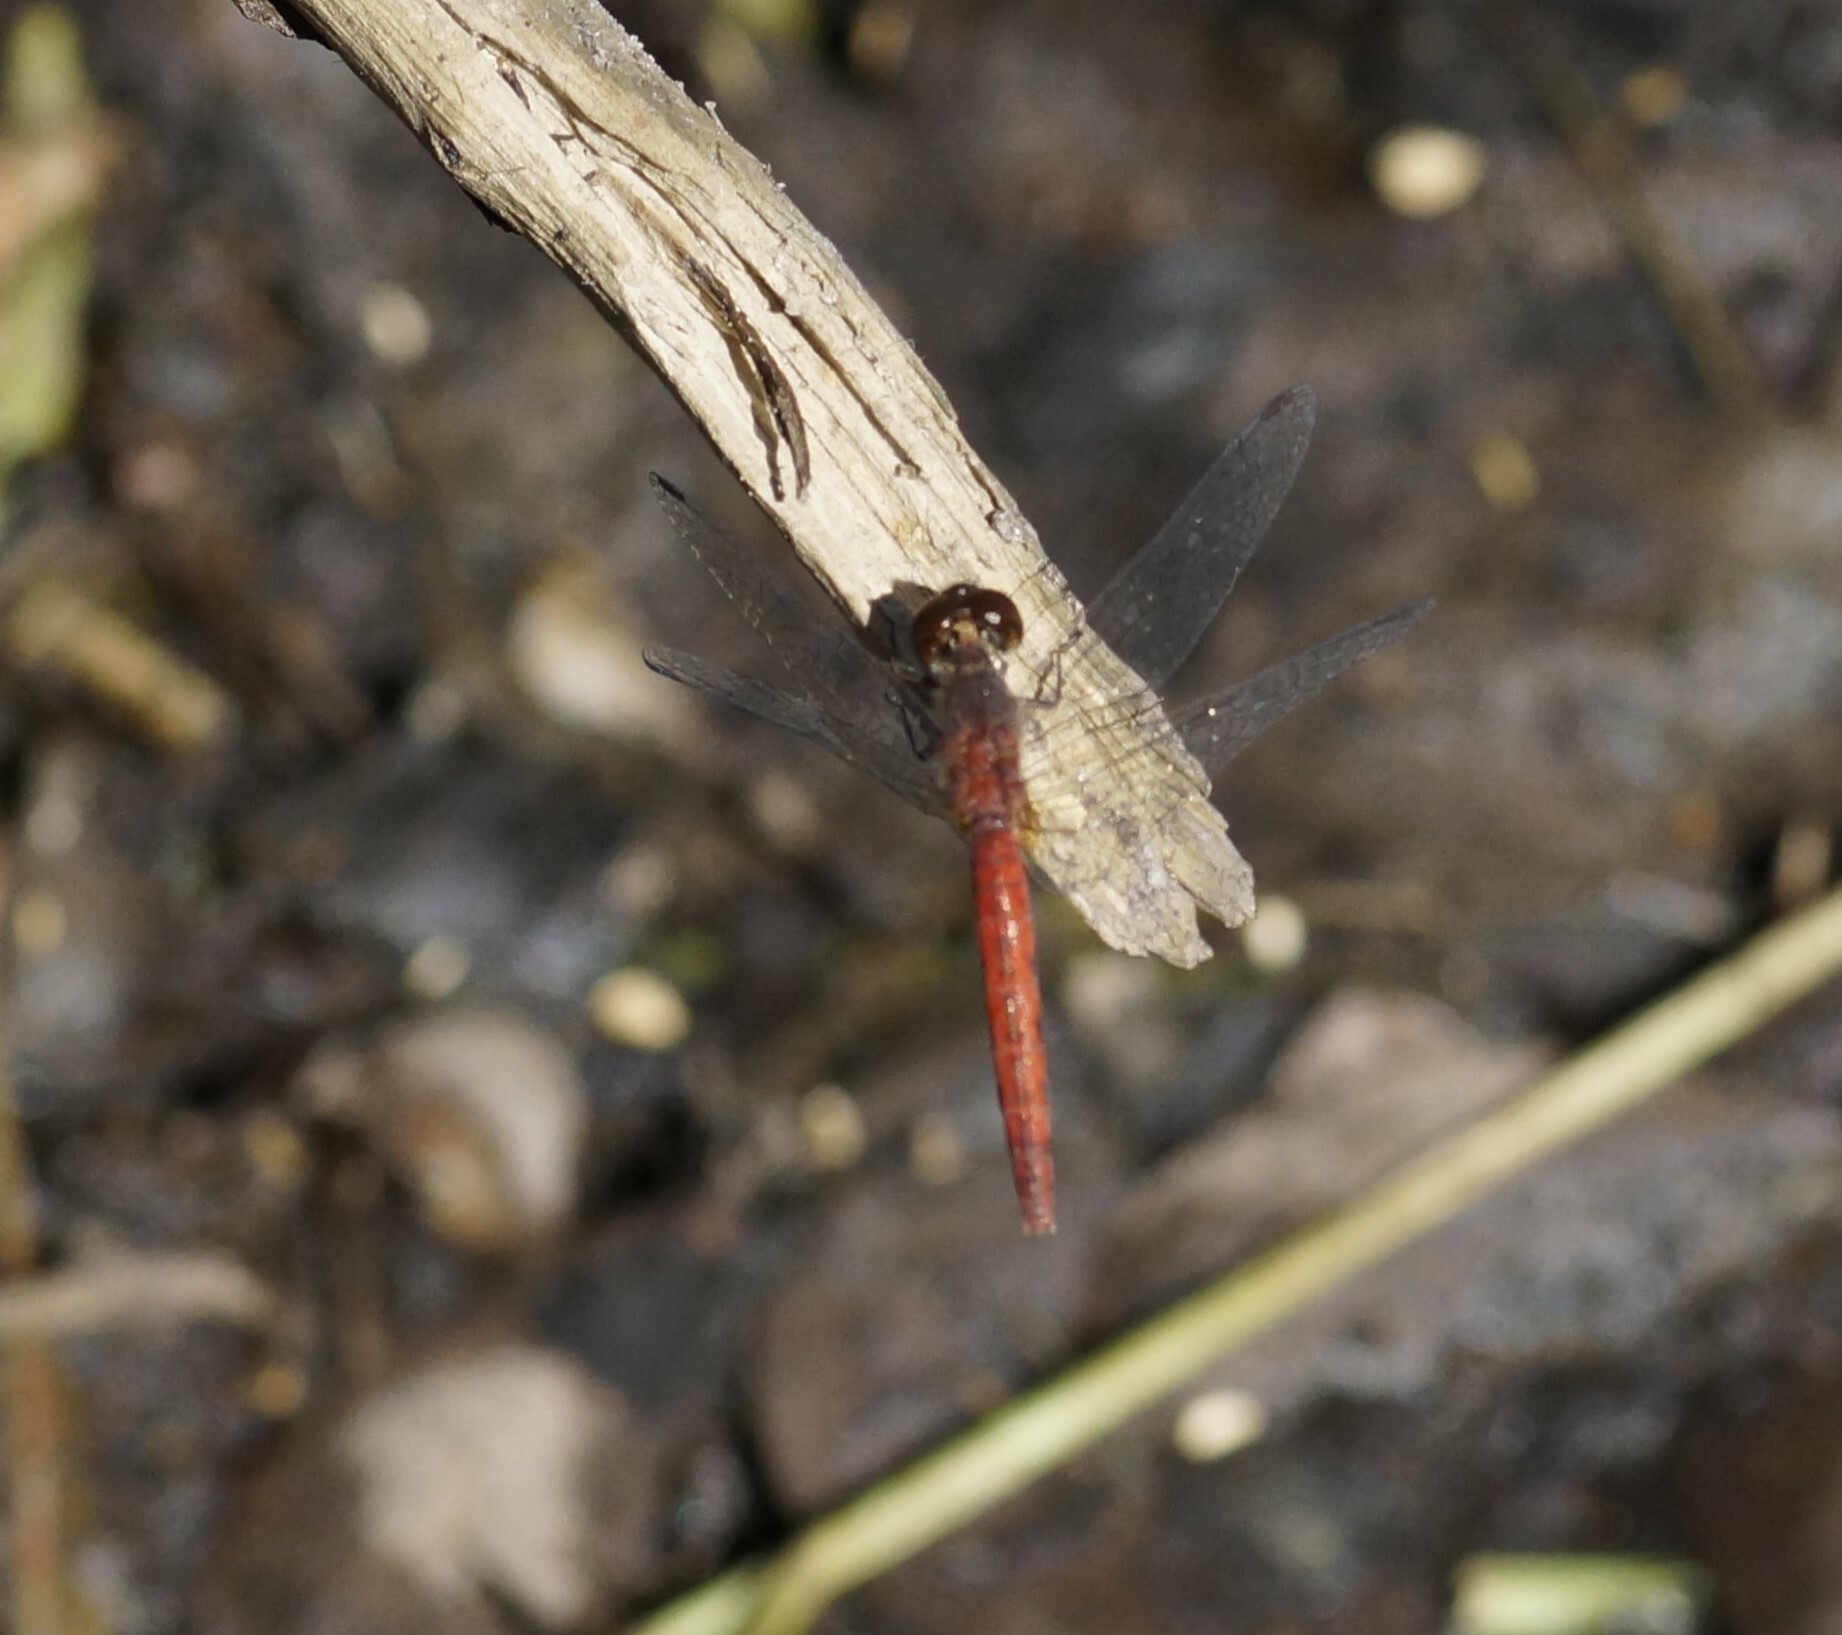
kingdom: Animalia
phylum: Arthropoda
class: Insecta
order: Odonata
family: Libellulidae
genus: Nannodiplax
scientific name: Nannodiplax rubra
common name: Pygmy percher
